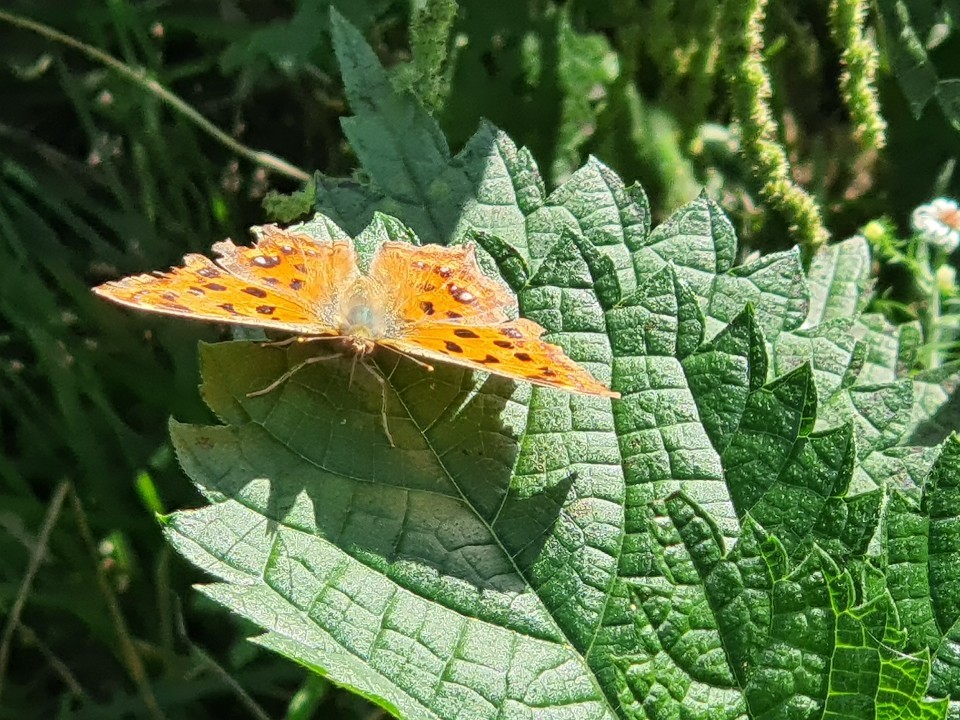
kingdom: Animalia
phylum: Arthropoda
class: Insecta
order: Lepidoptera
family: Nymphalidae
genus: Polygonia
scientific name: Polygonia c-aureum
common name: Asian comma
